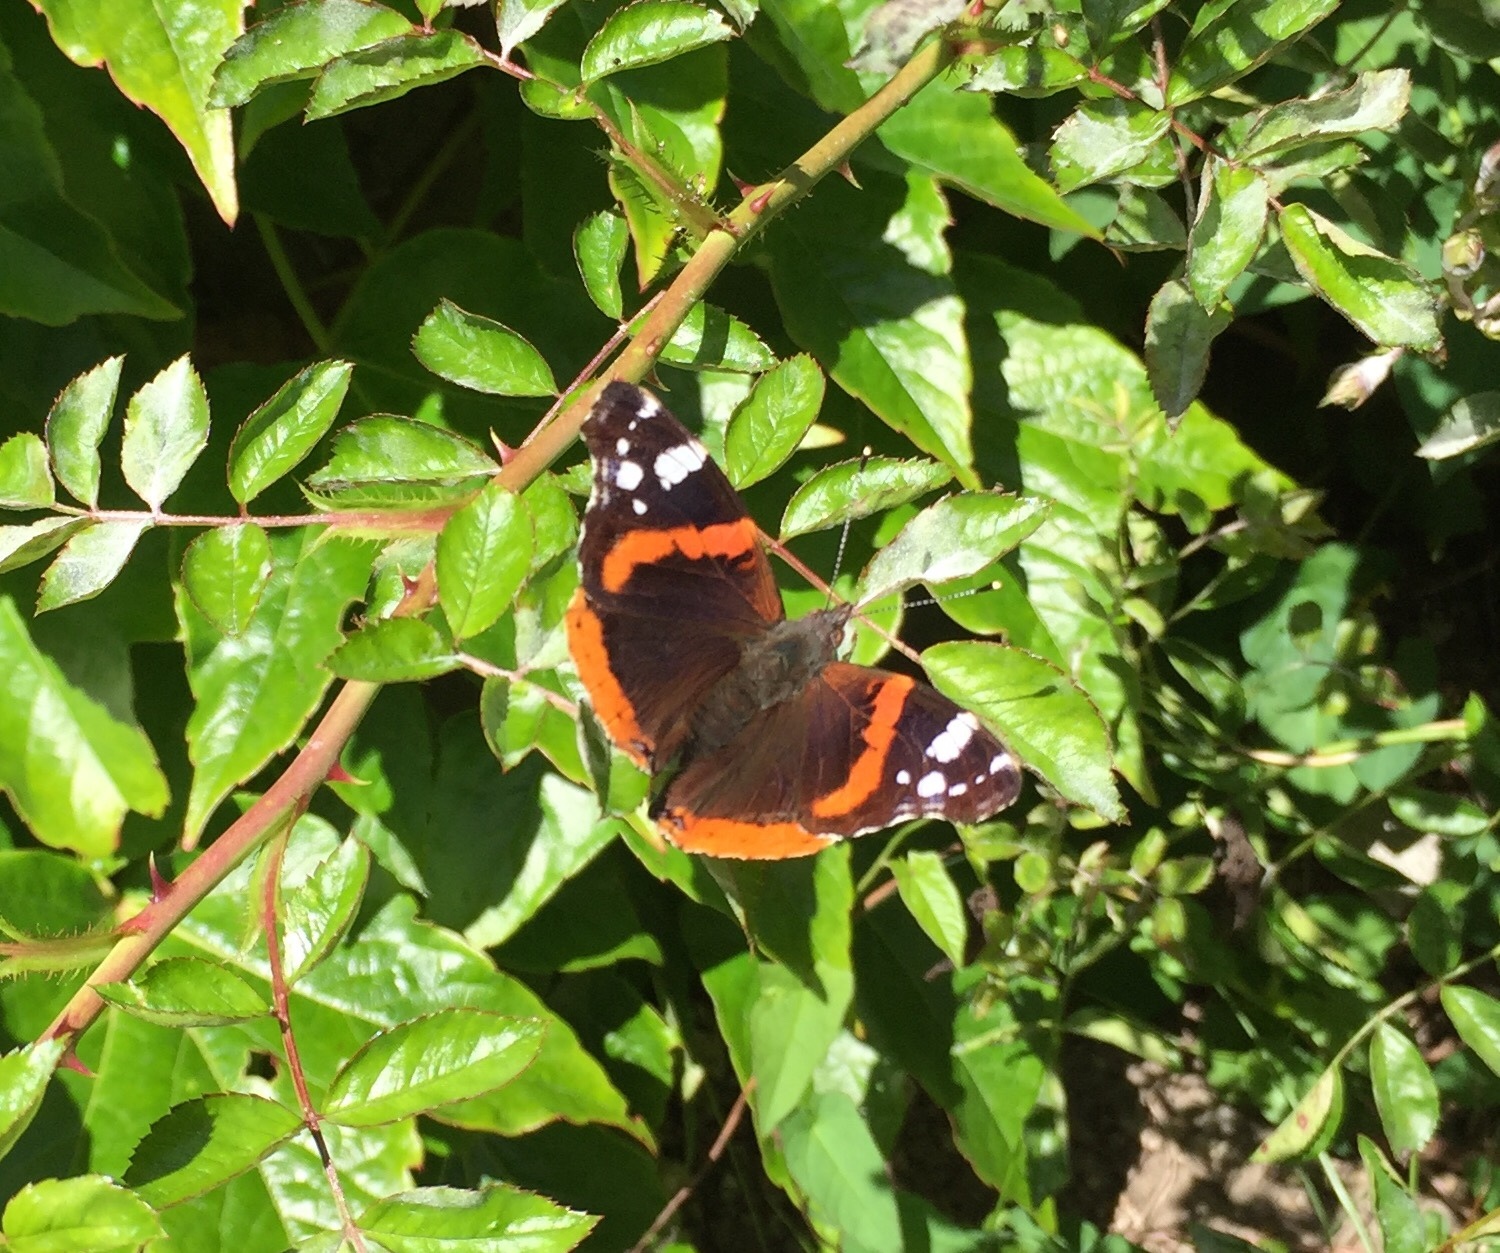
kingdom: Animalia
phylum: Arthropoda
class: Insecta
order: Lepidoptera
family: Nymphalidae
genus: Vanessa
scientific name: Vanessa atalanta
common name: Red admiral
